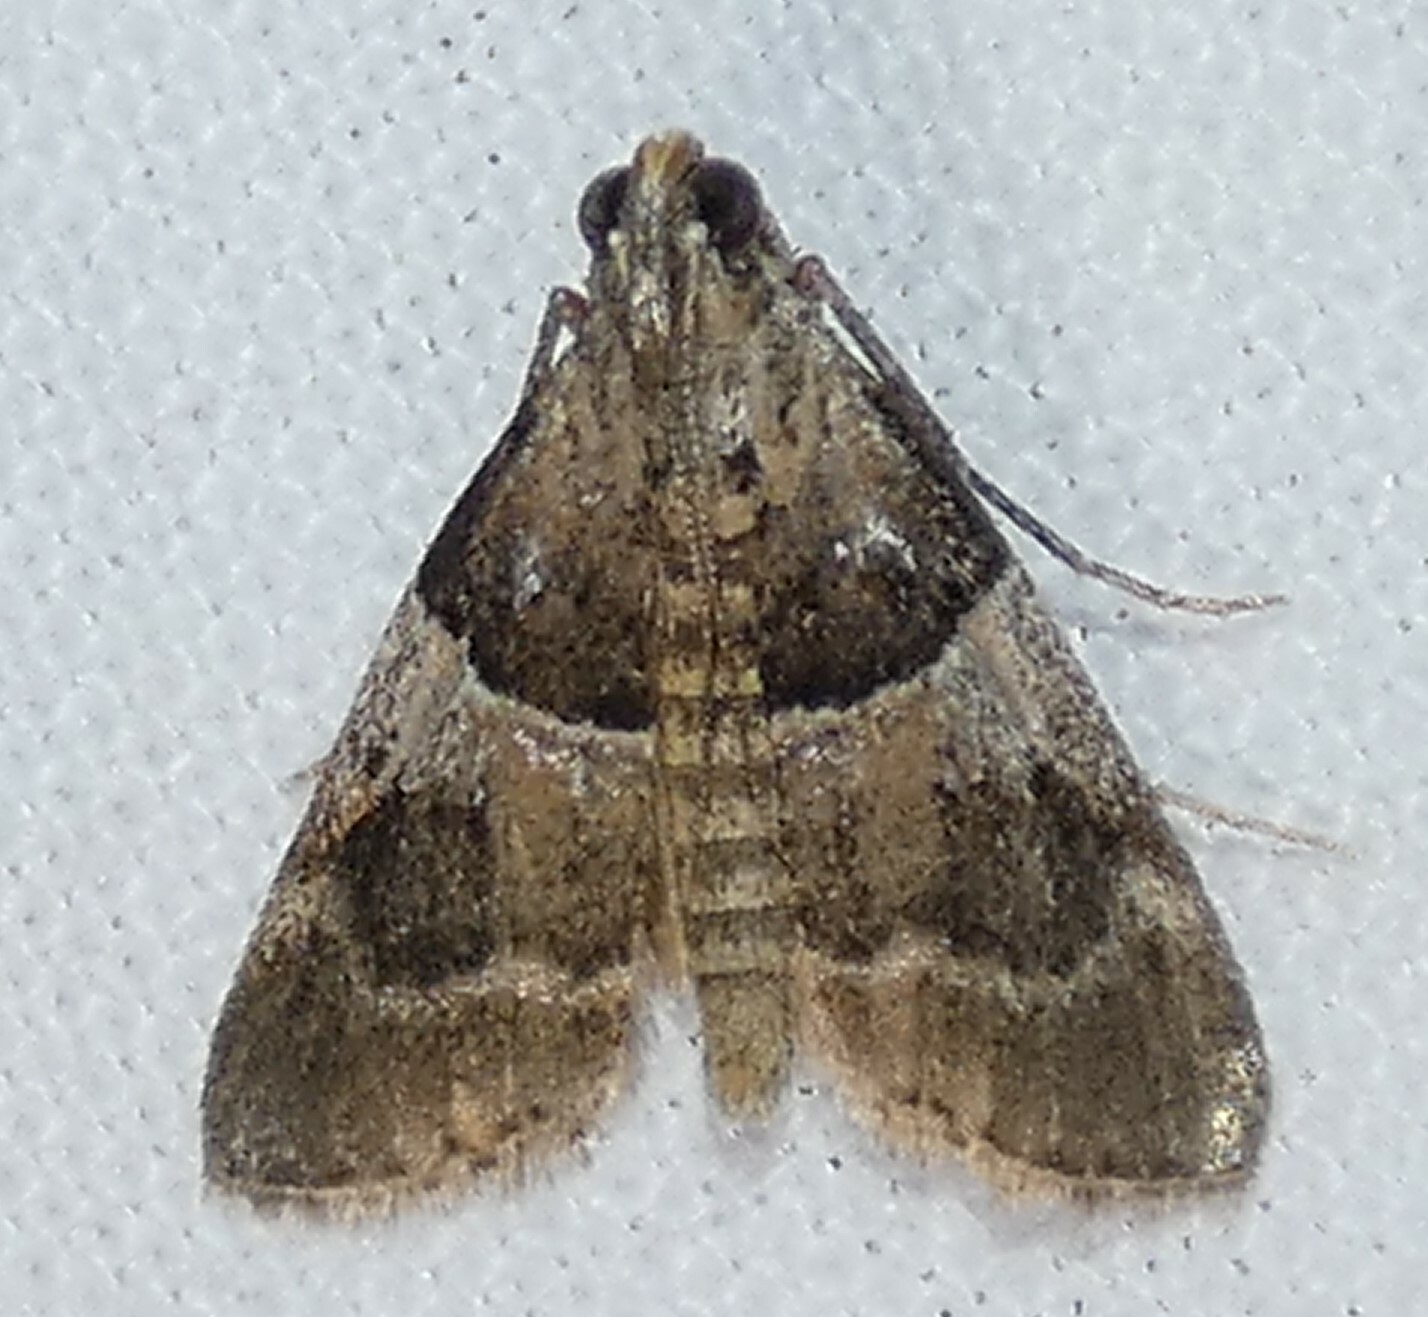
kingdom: Animalia
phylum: Arthropoda
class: Insecta
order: Lepidoptera
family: Pyralidae
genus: Pococera
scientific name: Pococera scortealis
